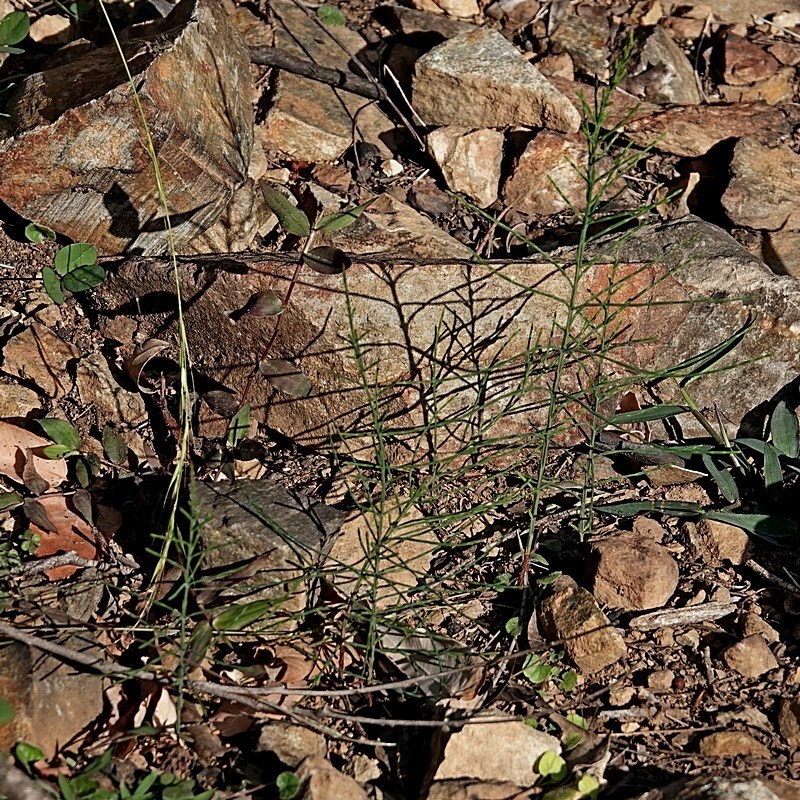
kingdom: Plantae
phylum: Tracheophyta
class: Magnoliopsida
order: Fagales
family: Casuarinaceae
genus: Casuarina
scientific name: Casuarina cunninghamiana
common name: River sheoak
